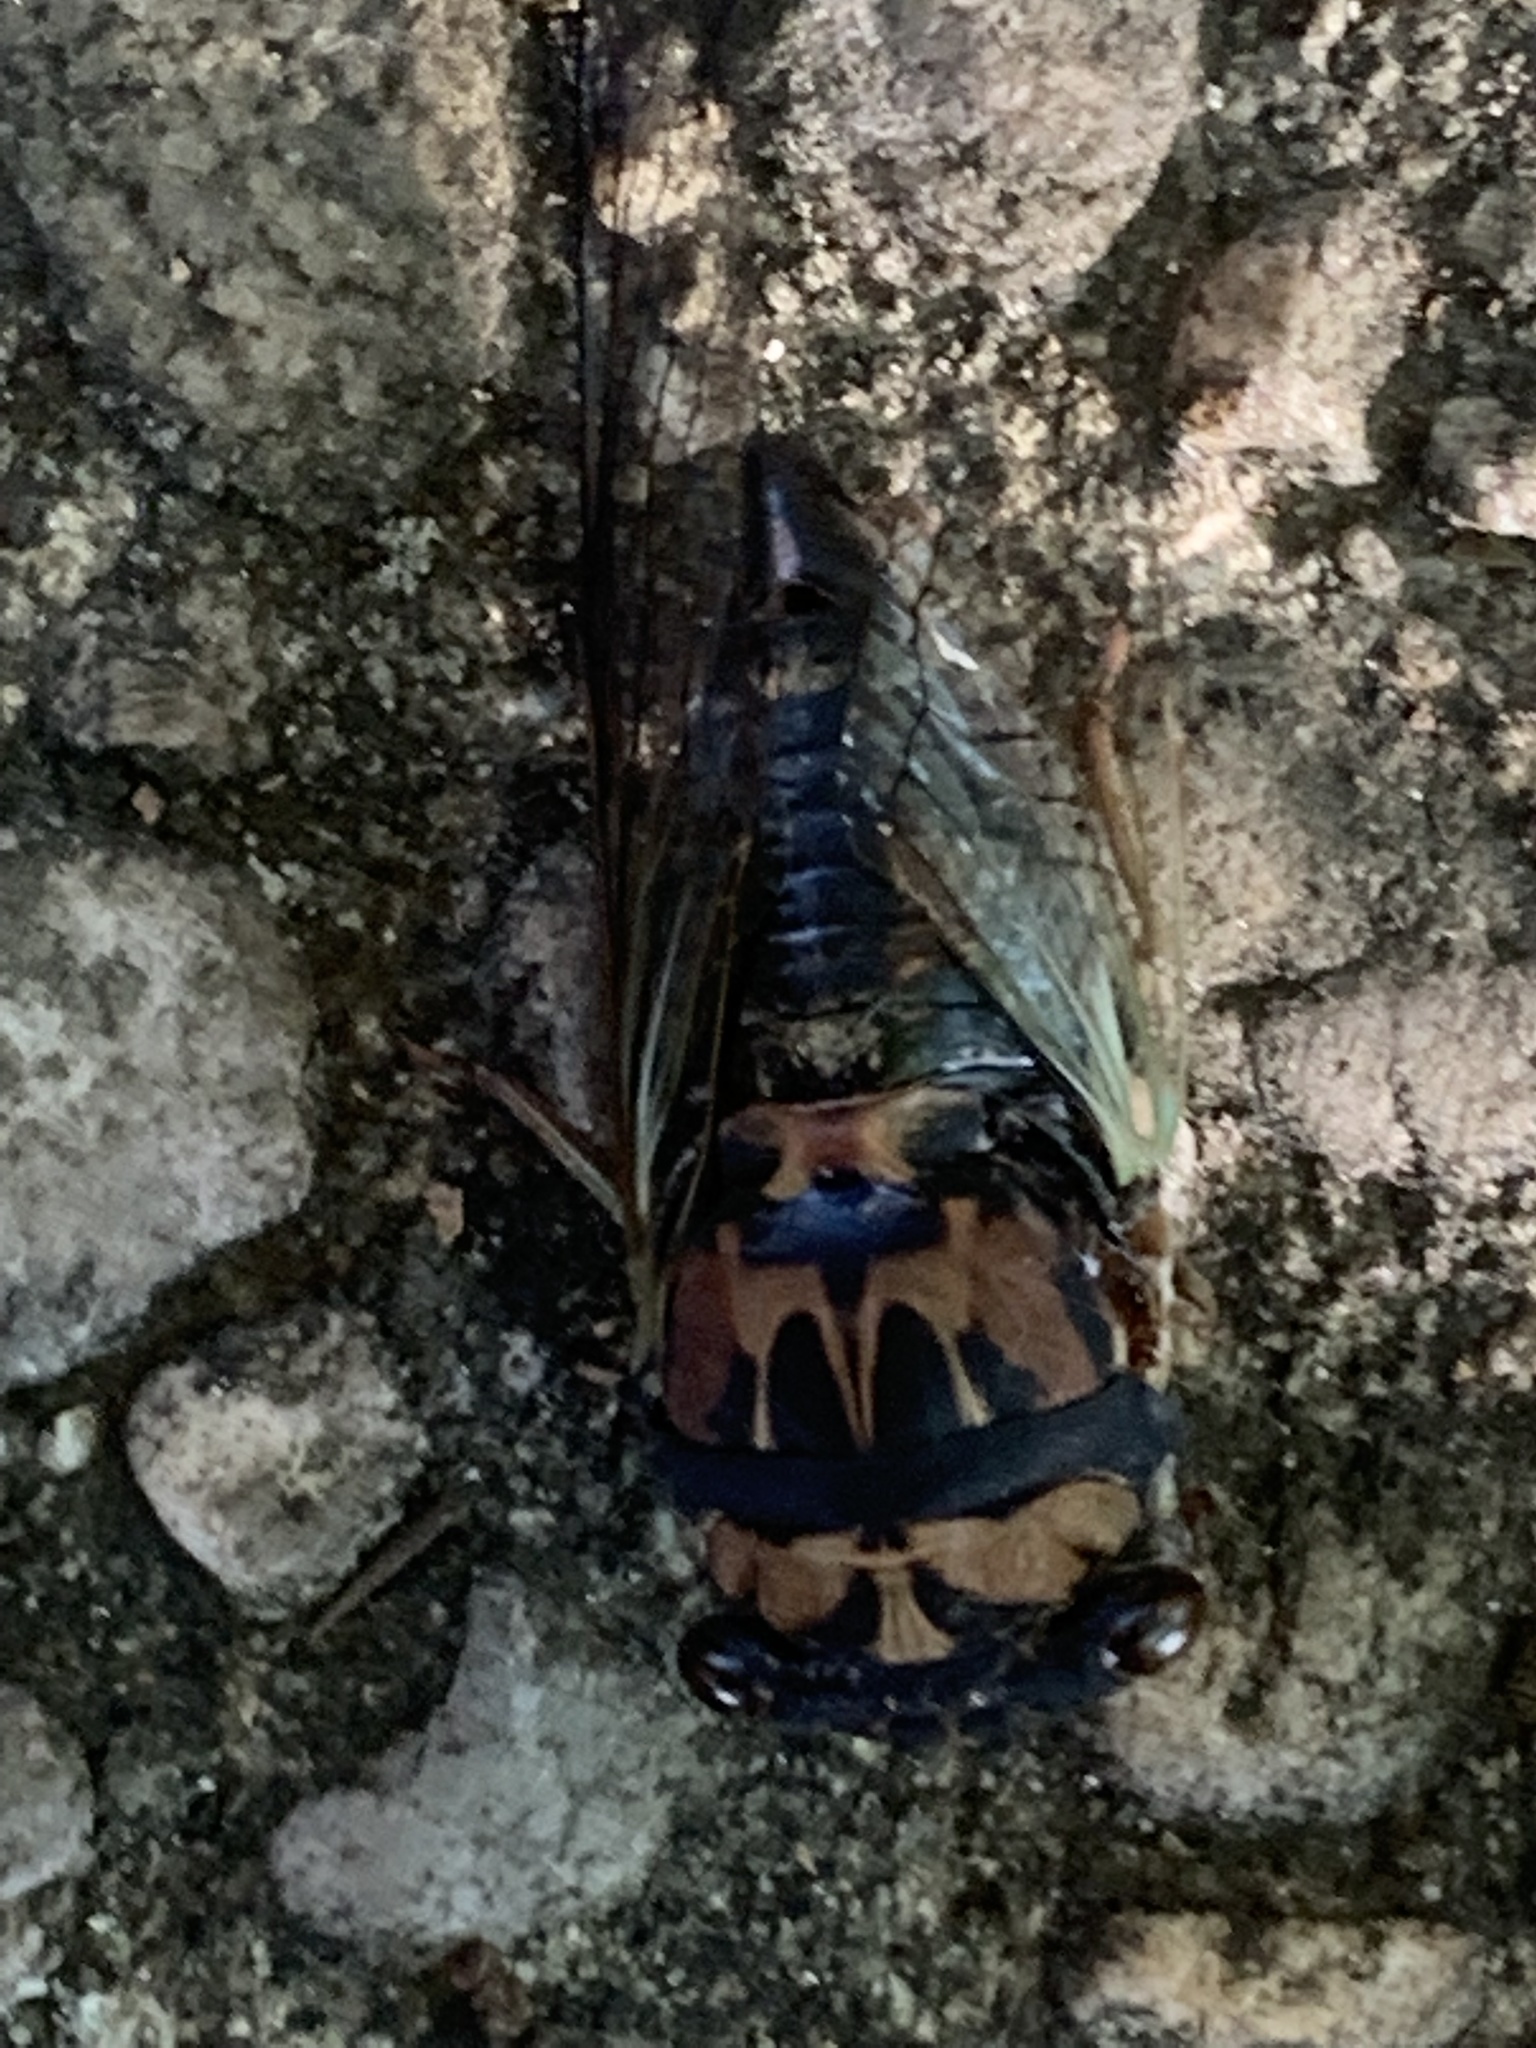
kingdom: Animalia
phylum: Arthropoda
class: Insecta
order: Hemiptera
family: Cicadidae
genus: Neotibicen
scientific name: Neotibicen lyricen
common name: Lyric cicada
